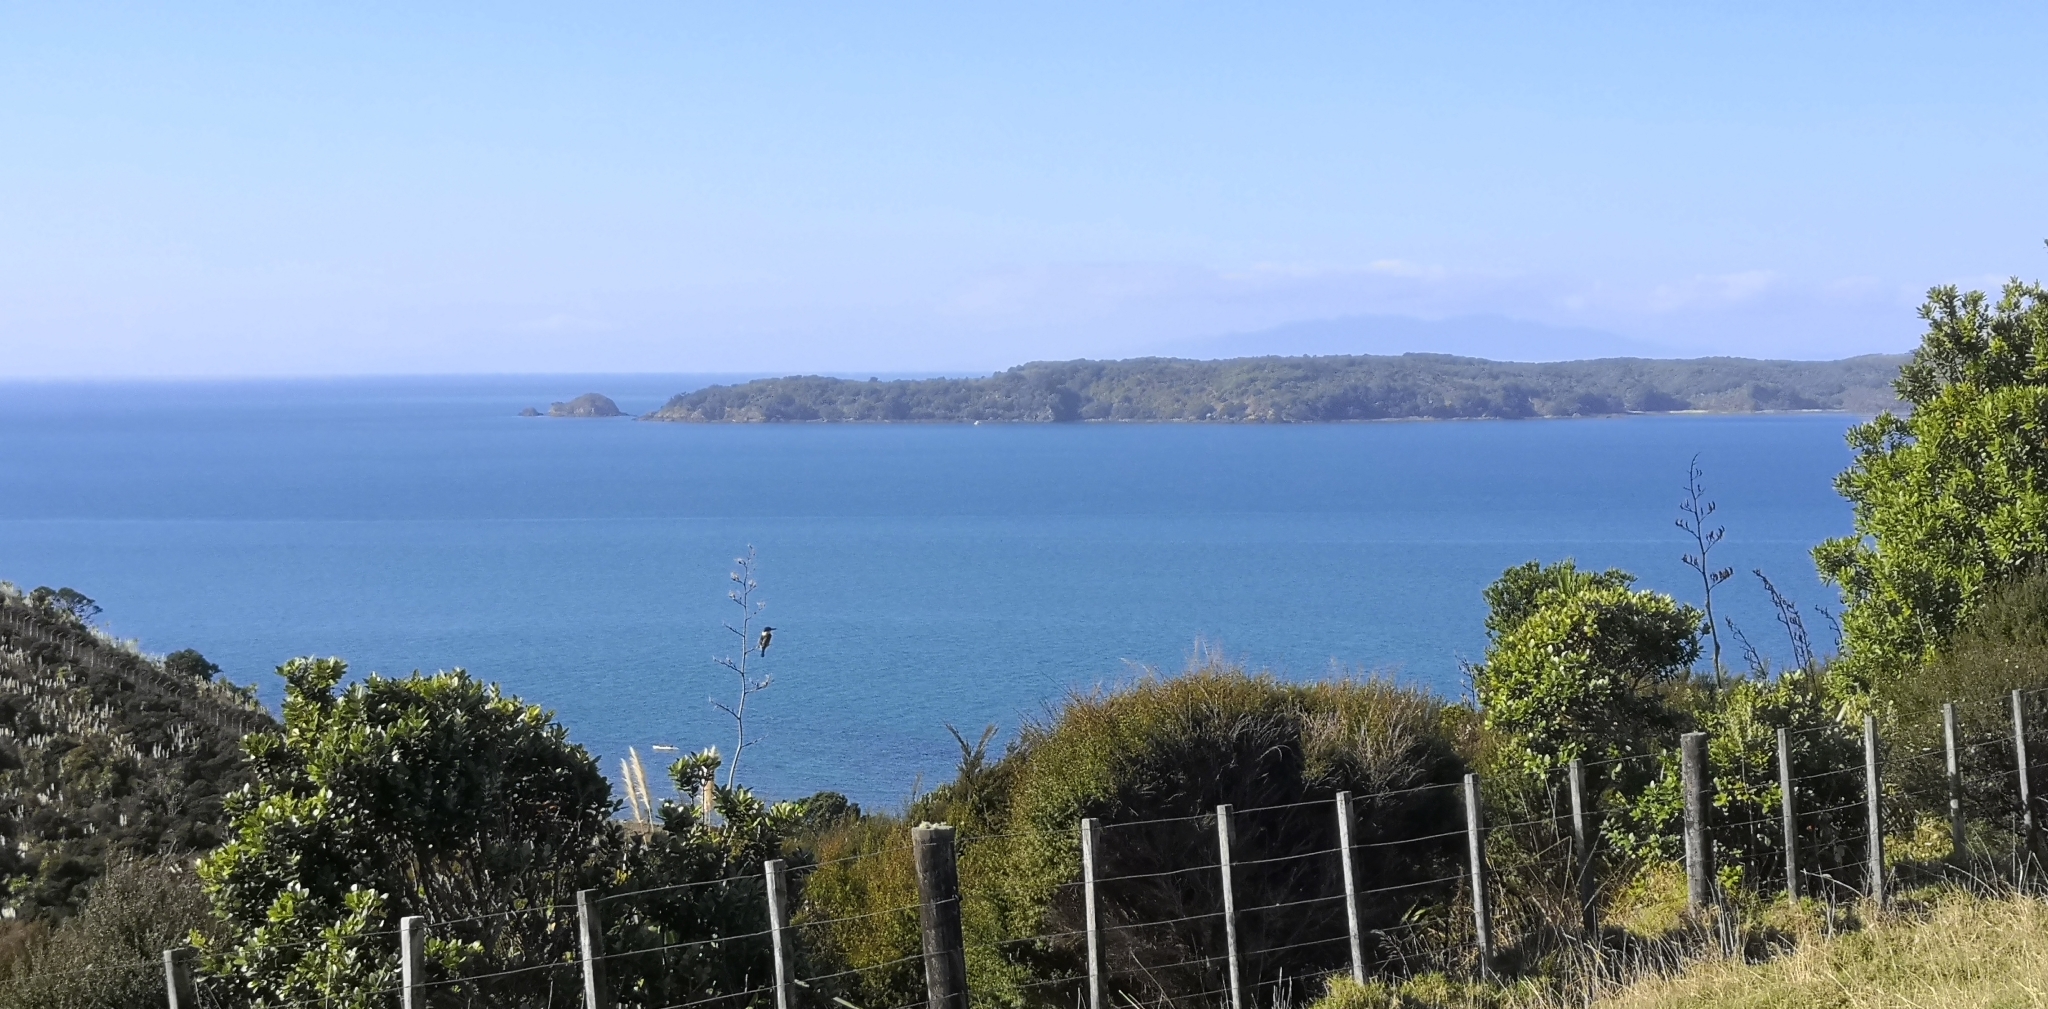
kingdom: Animalia
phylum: Chordata
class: Aves
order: Coraciiformes
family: Alcedinidae
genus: Todiramphus
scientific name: Todiramphus sanctus
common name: Sacred kingfisher
